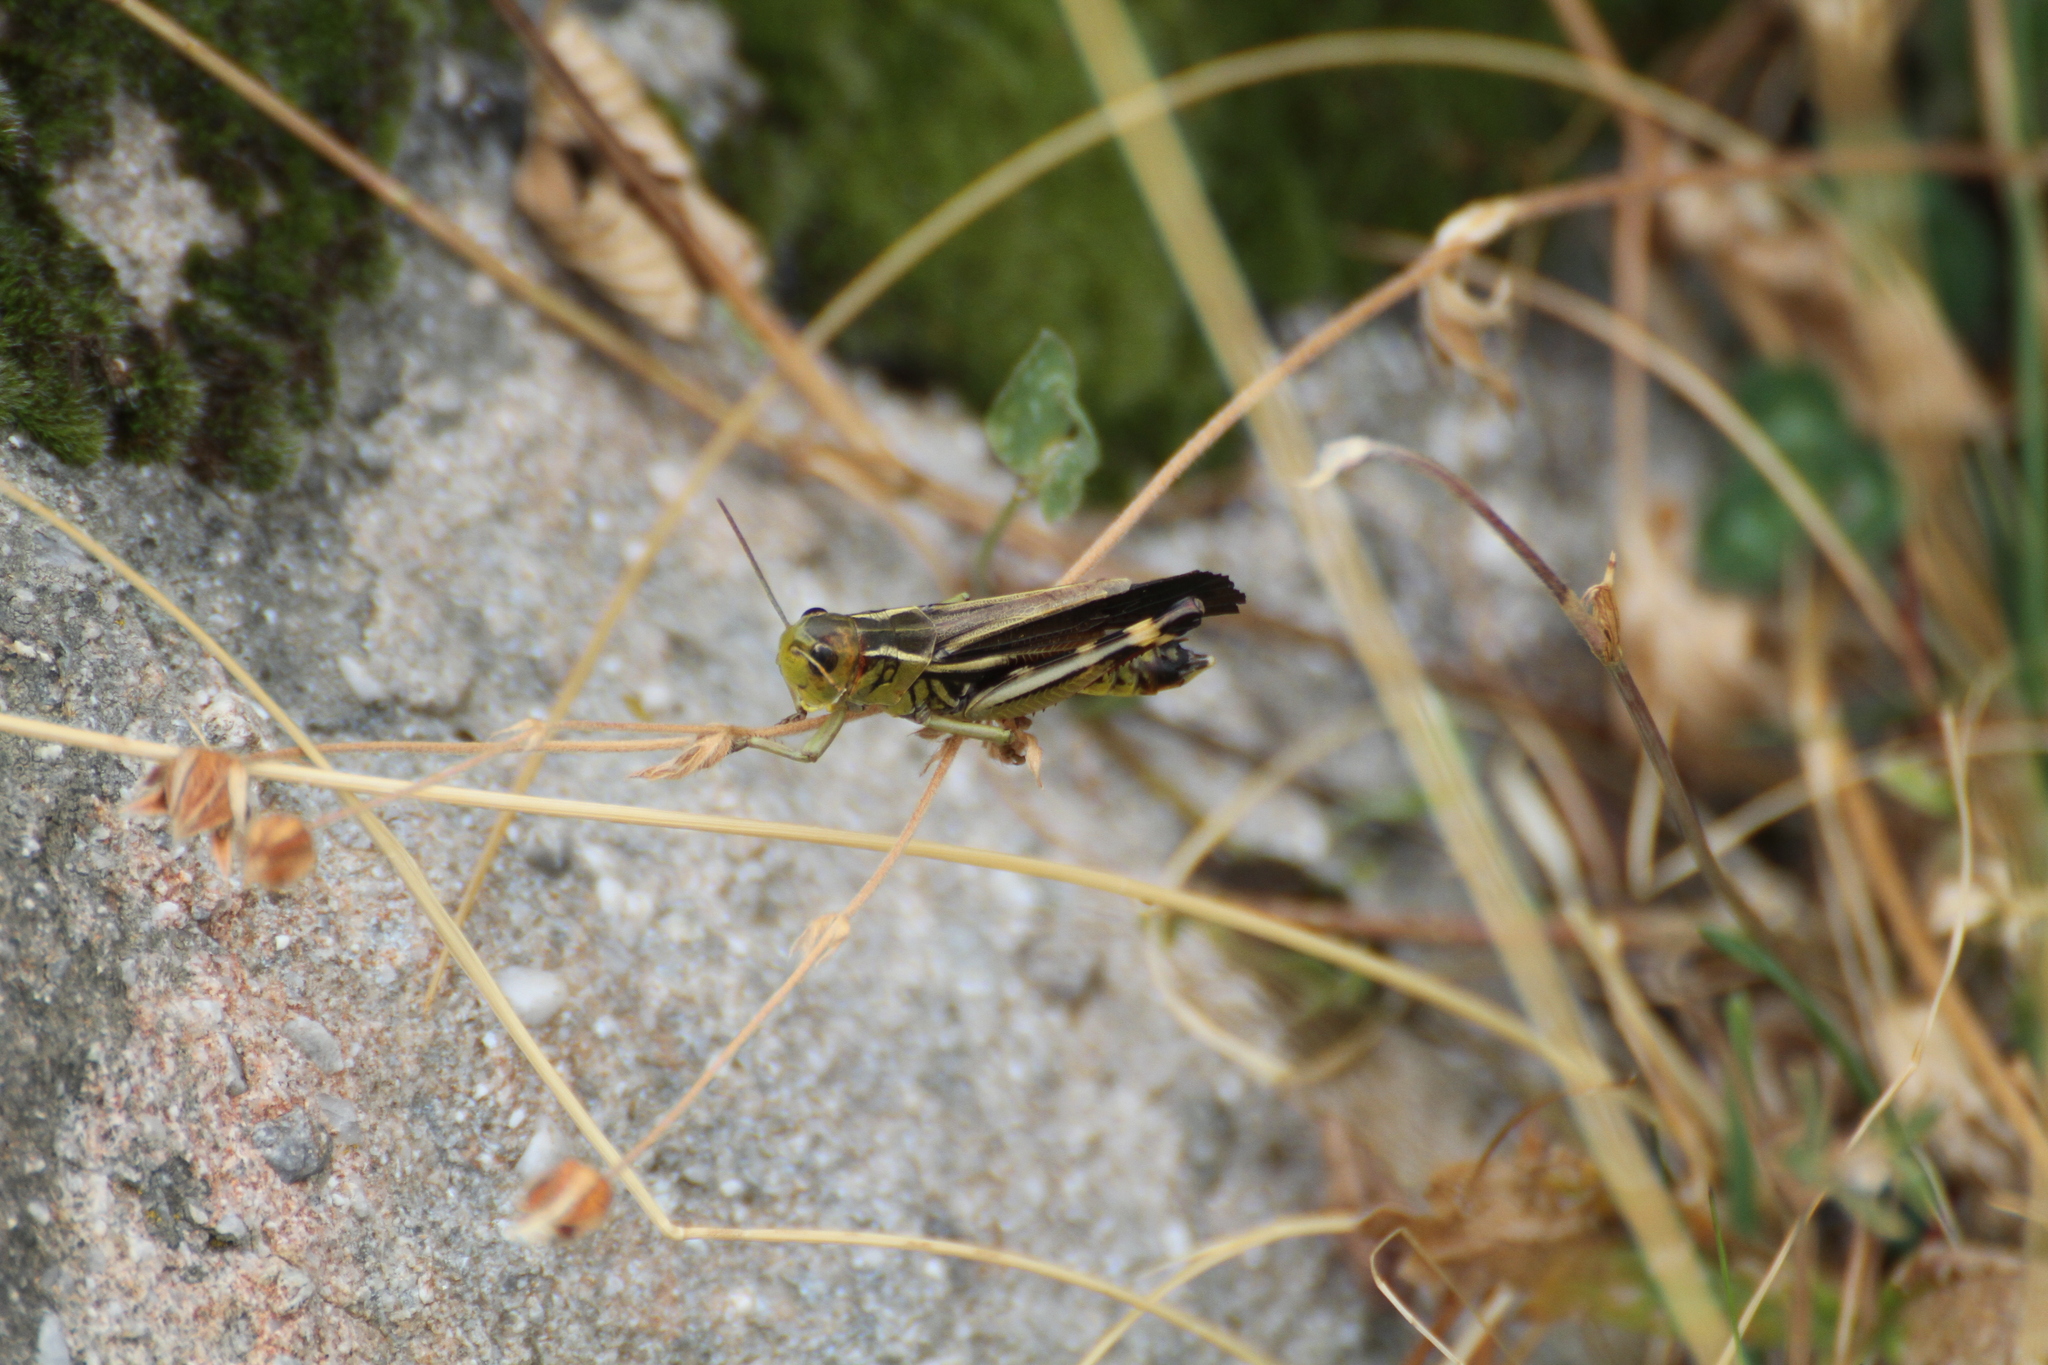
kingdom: Animalia
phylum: Arthropoda
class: Insecta
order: Orthoptera
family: Acrididae
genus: Arcyptera
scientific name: Arcyptera fusca
